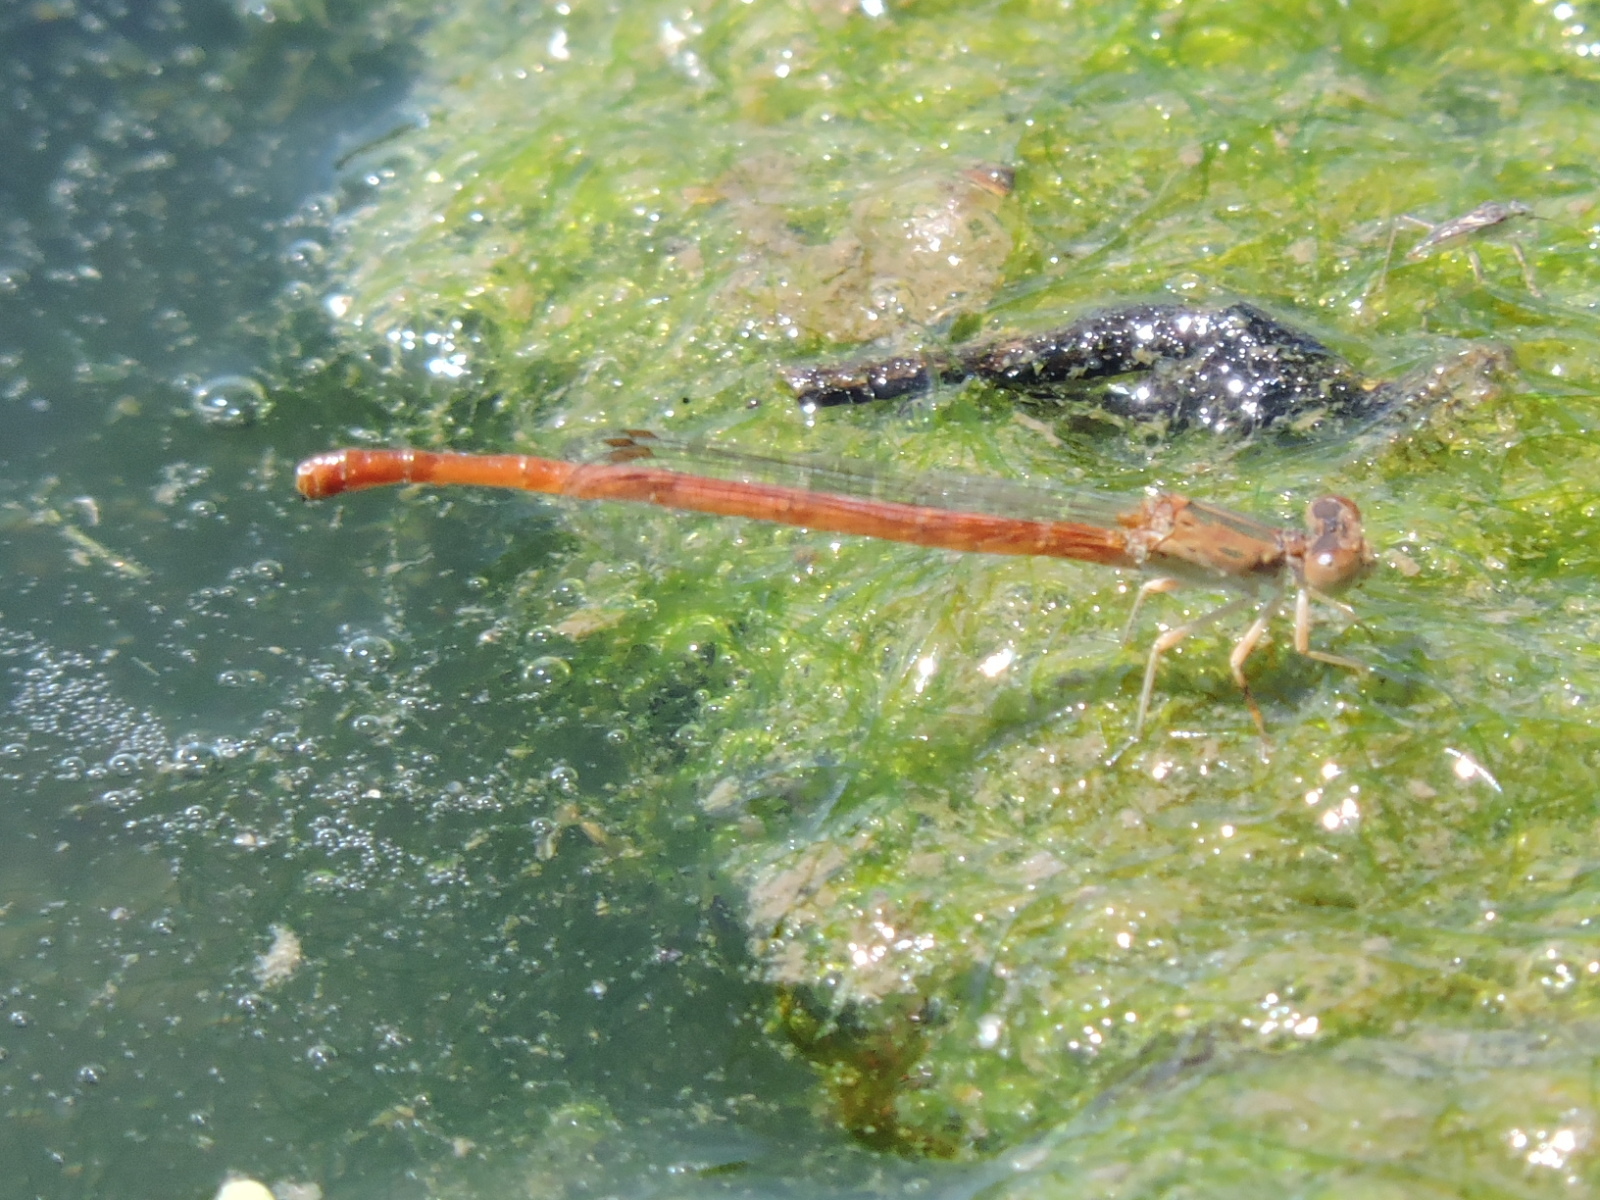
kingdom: Animalia
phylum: Arthropoda
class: Insecta
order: Odonata
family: Coenagrionidae
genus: Telebasis
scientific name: Telebasis salva
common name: Desert firetail
